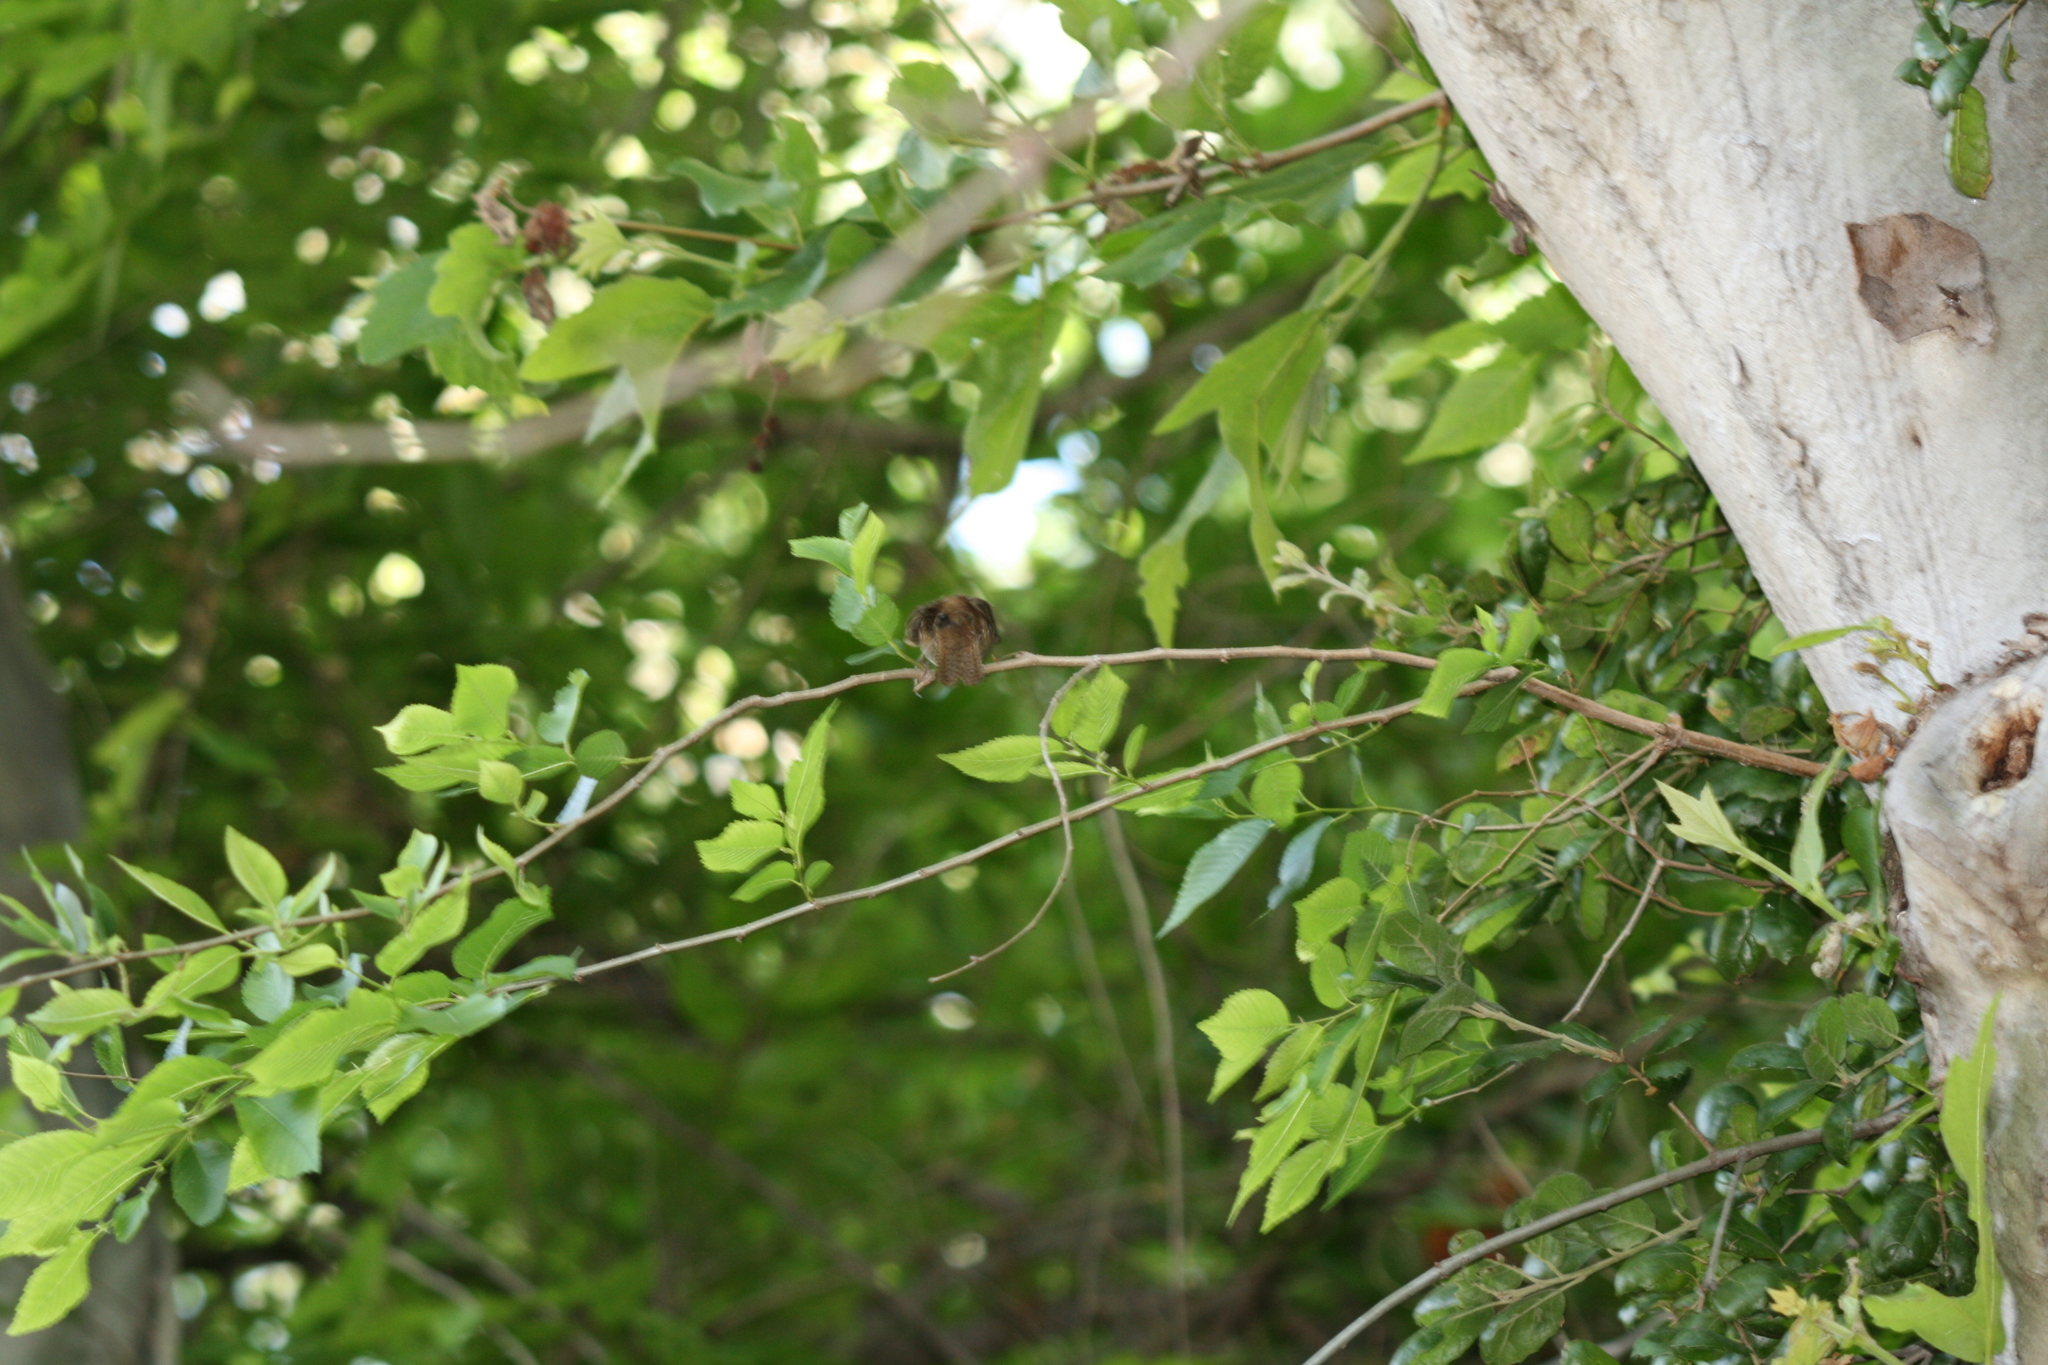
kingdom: Animalia
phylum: Chordata
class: Aves
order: Passeriformes
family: Troglodytidae
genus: Troglodytes
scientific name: Troglodytes aedon
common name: House wren
